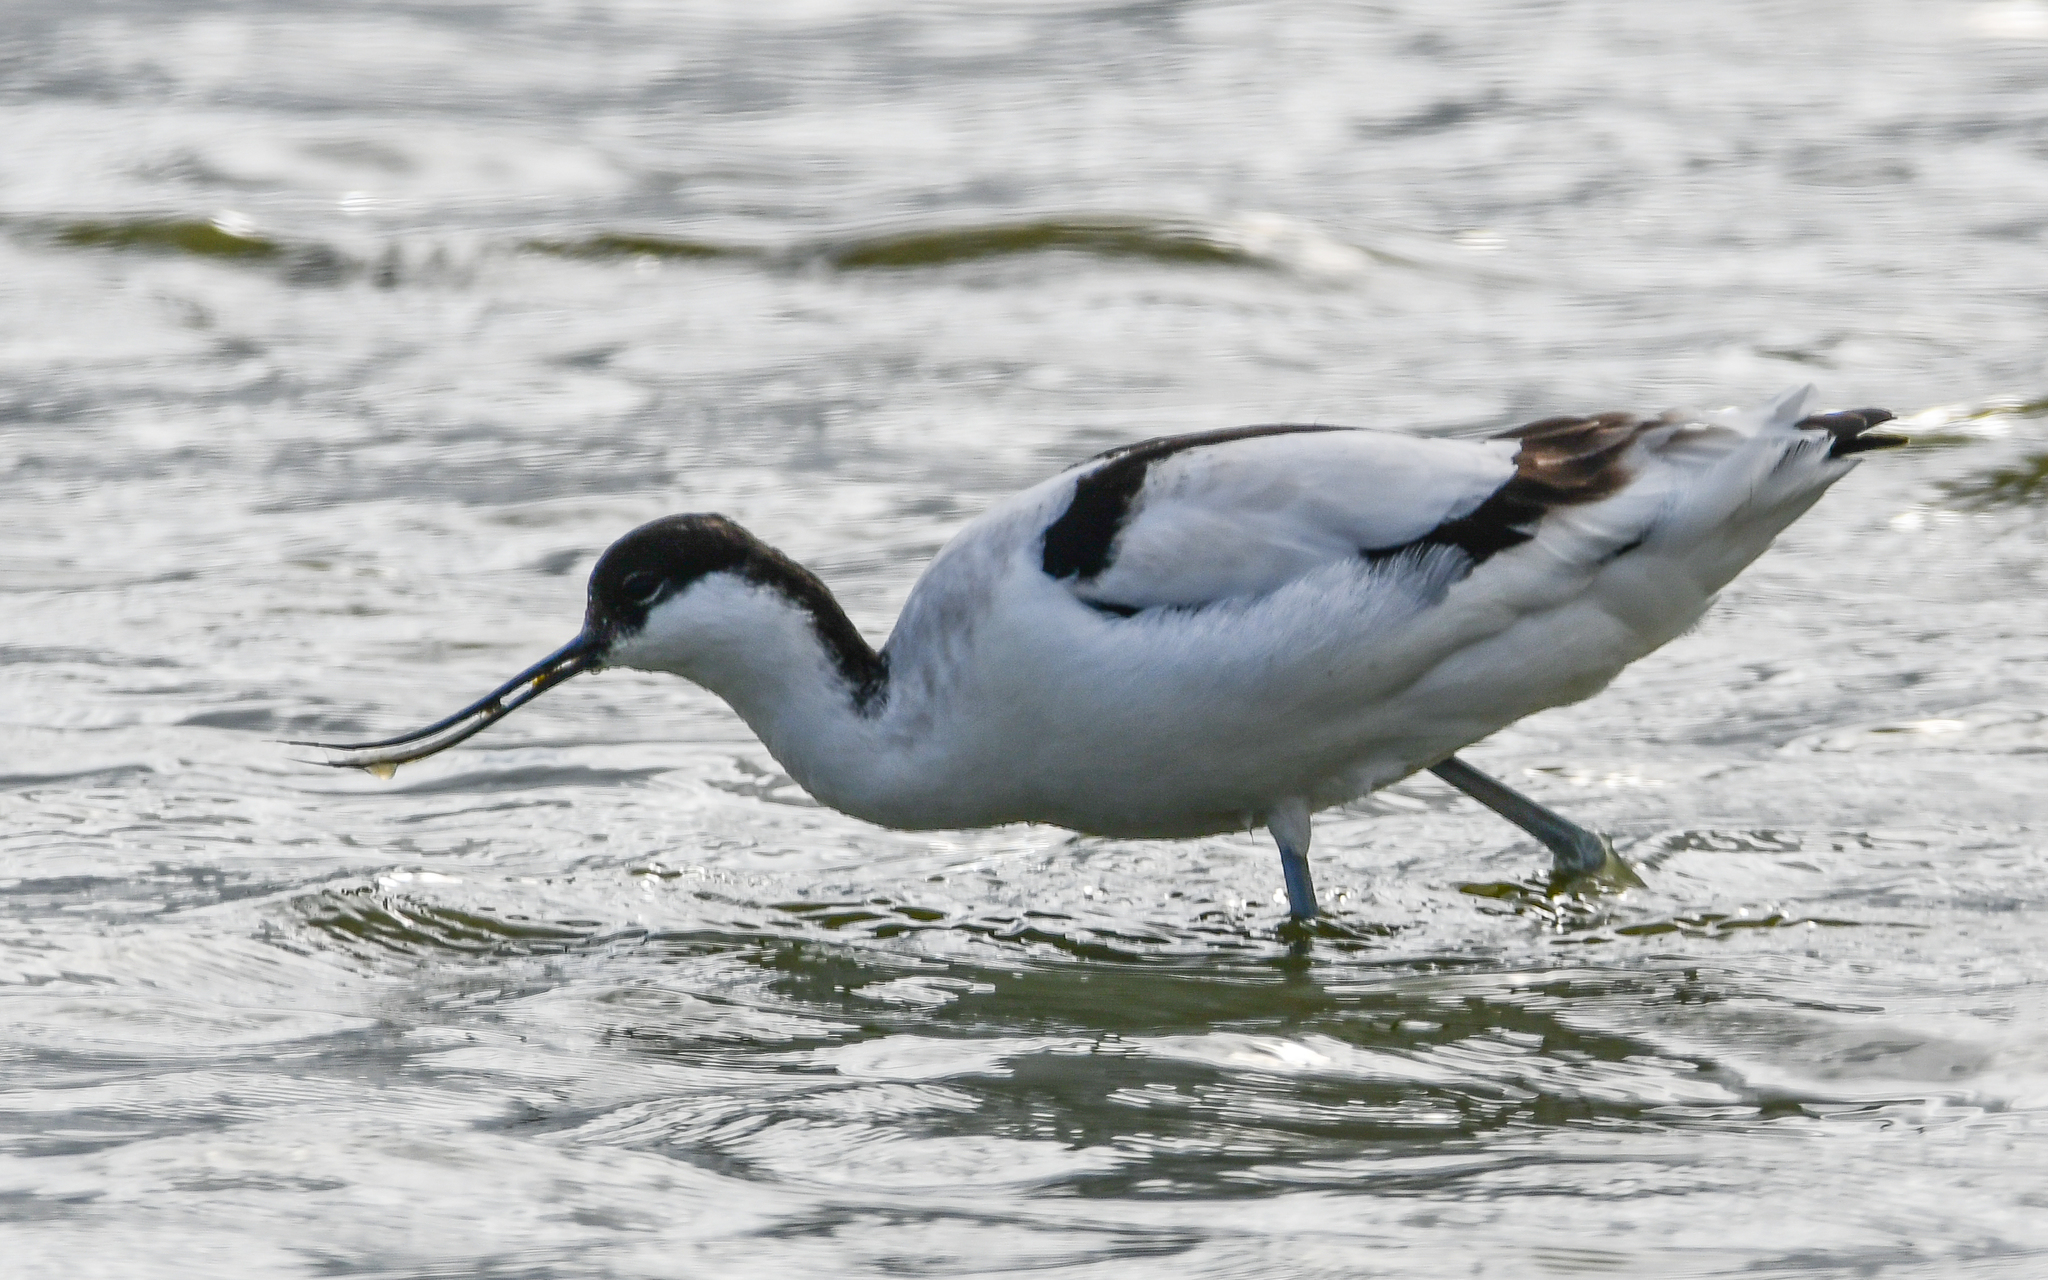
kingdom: Animalia
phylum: Chordata
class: Aves
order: Charadriiformes
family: Recurvirostridae
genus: Recurvirostra
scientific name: Recurvirostra avosetta
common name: Pied avocet
